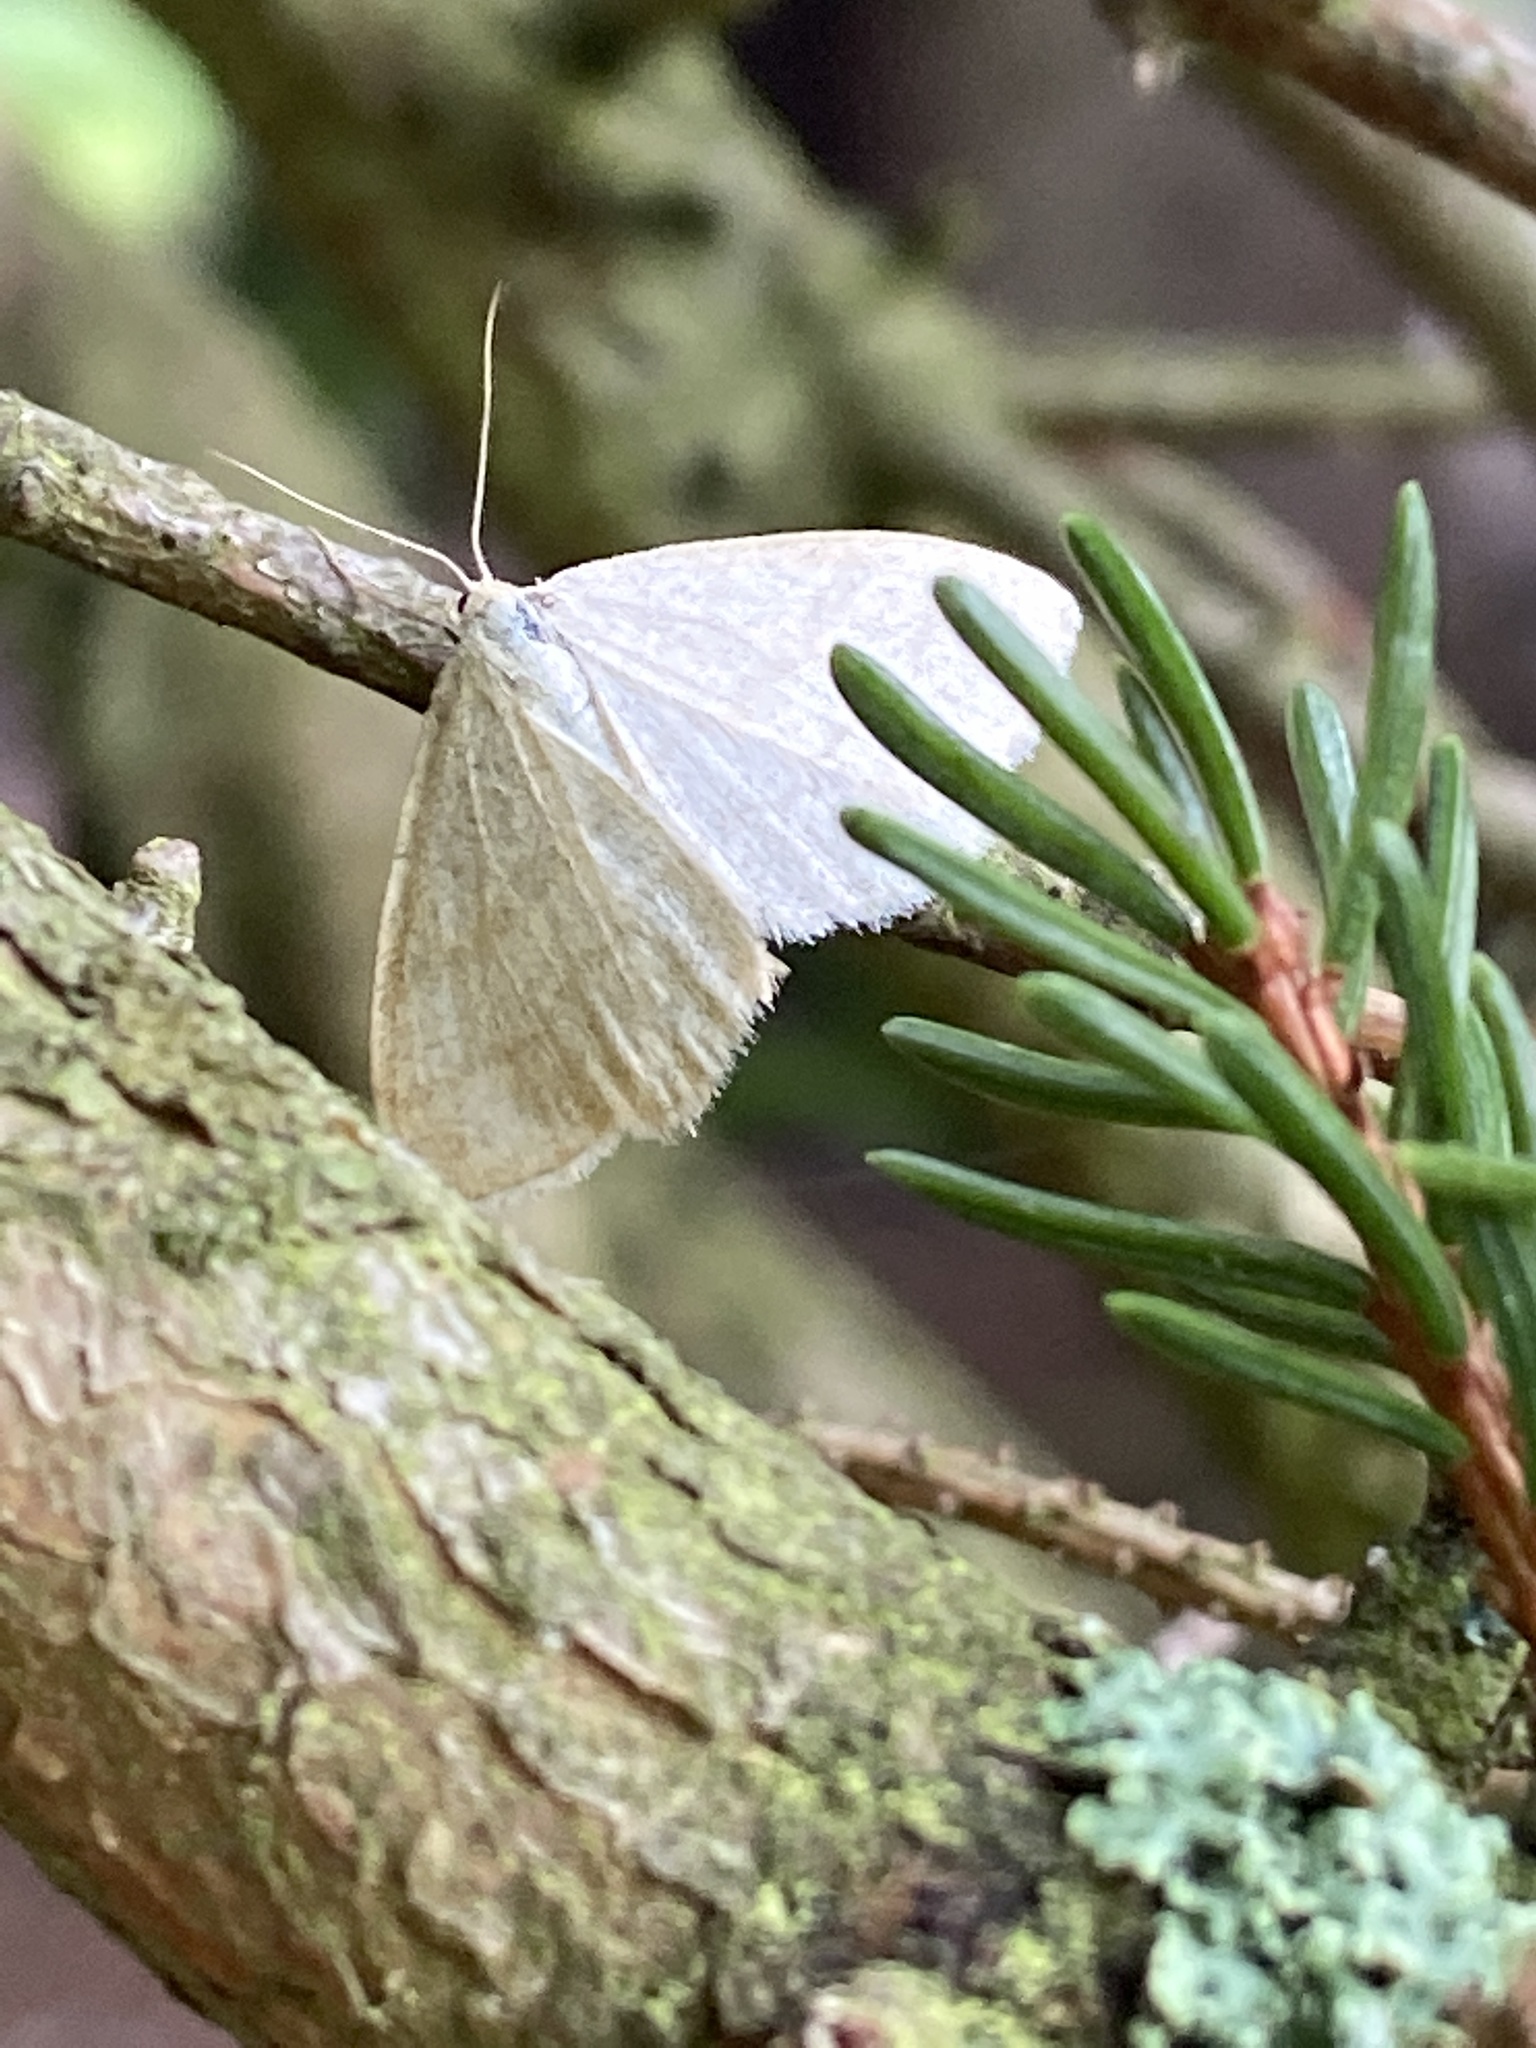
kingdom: Animalia
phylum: Arthropoda
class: Insecta
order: Lepidoptera
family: Geometridae
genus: Scopula
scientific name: Scopula ternata
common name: Smoky wave
